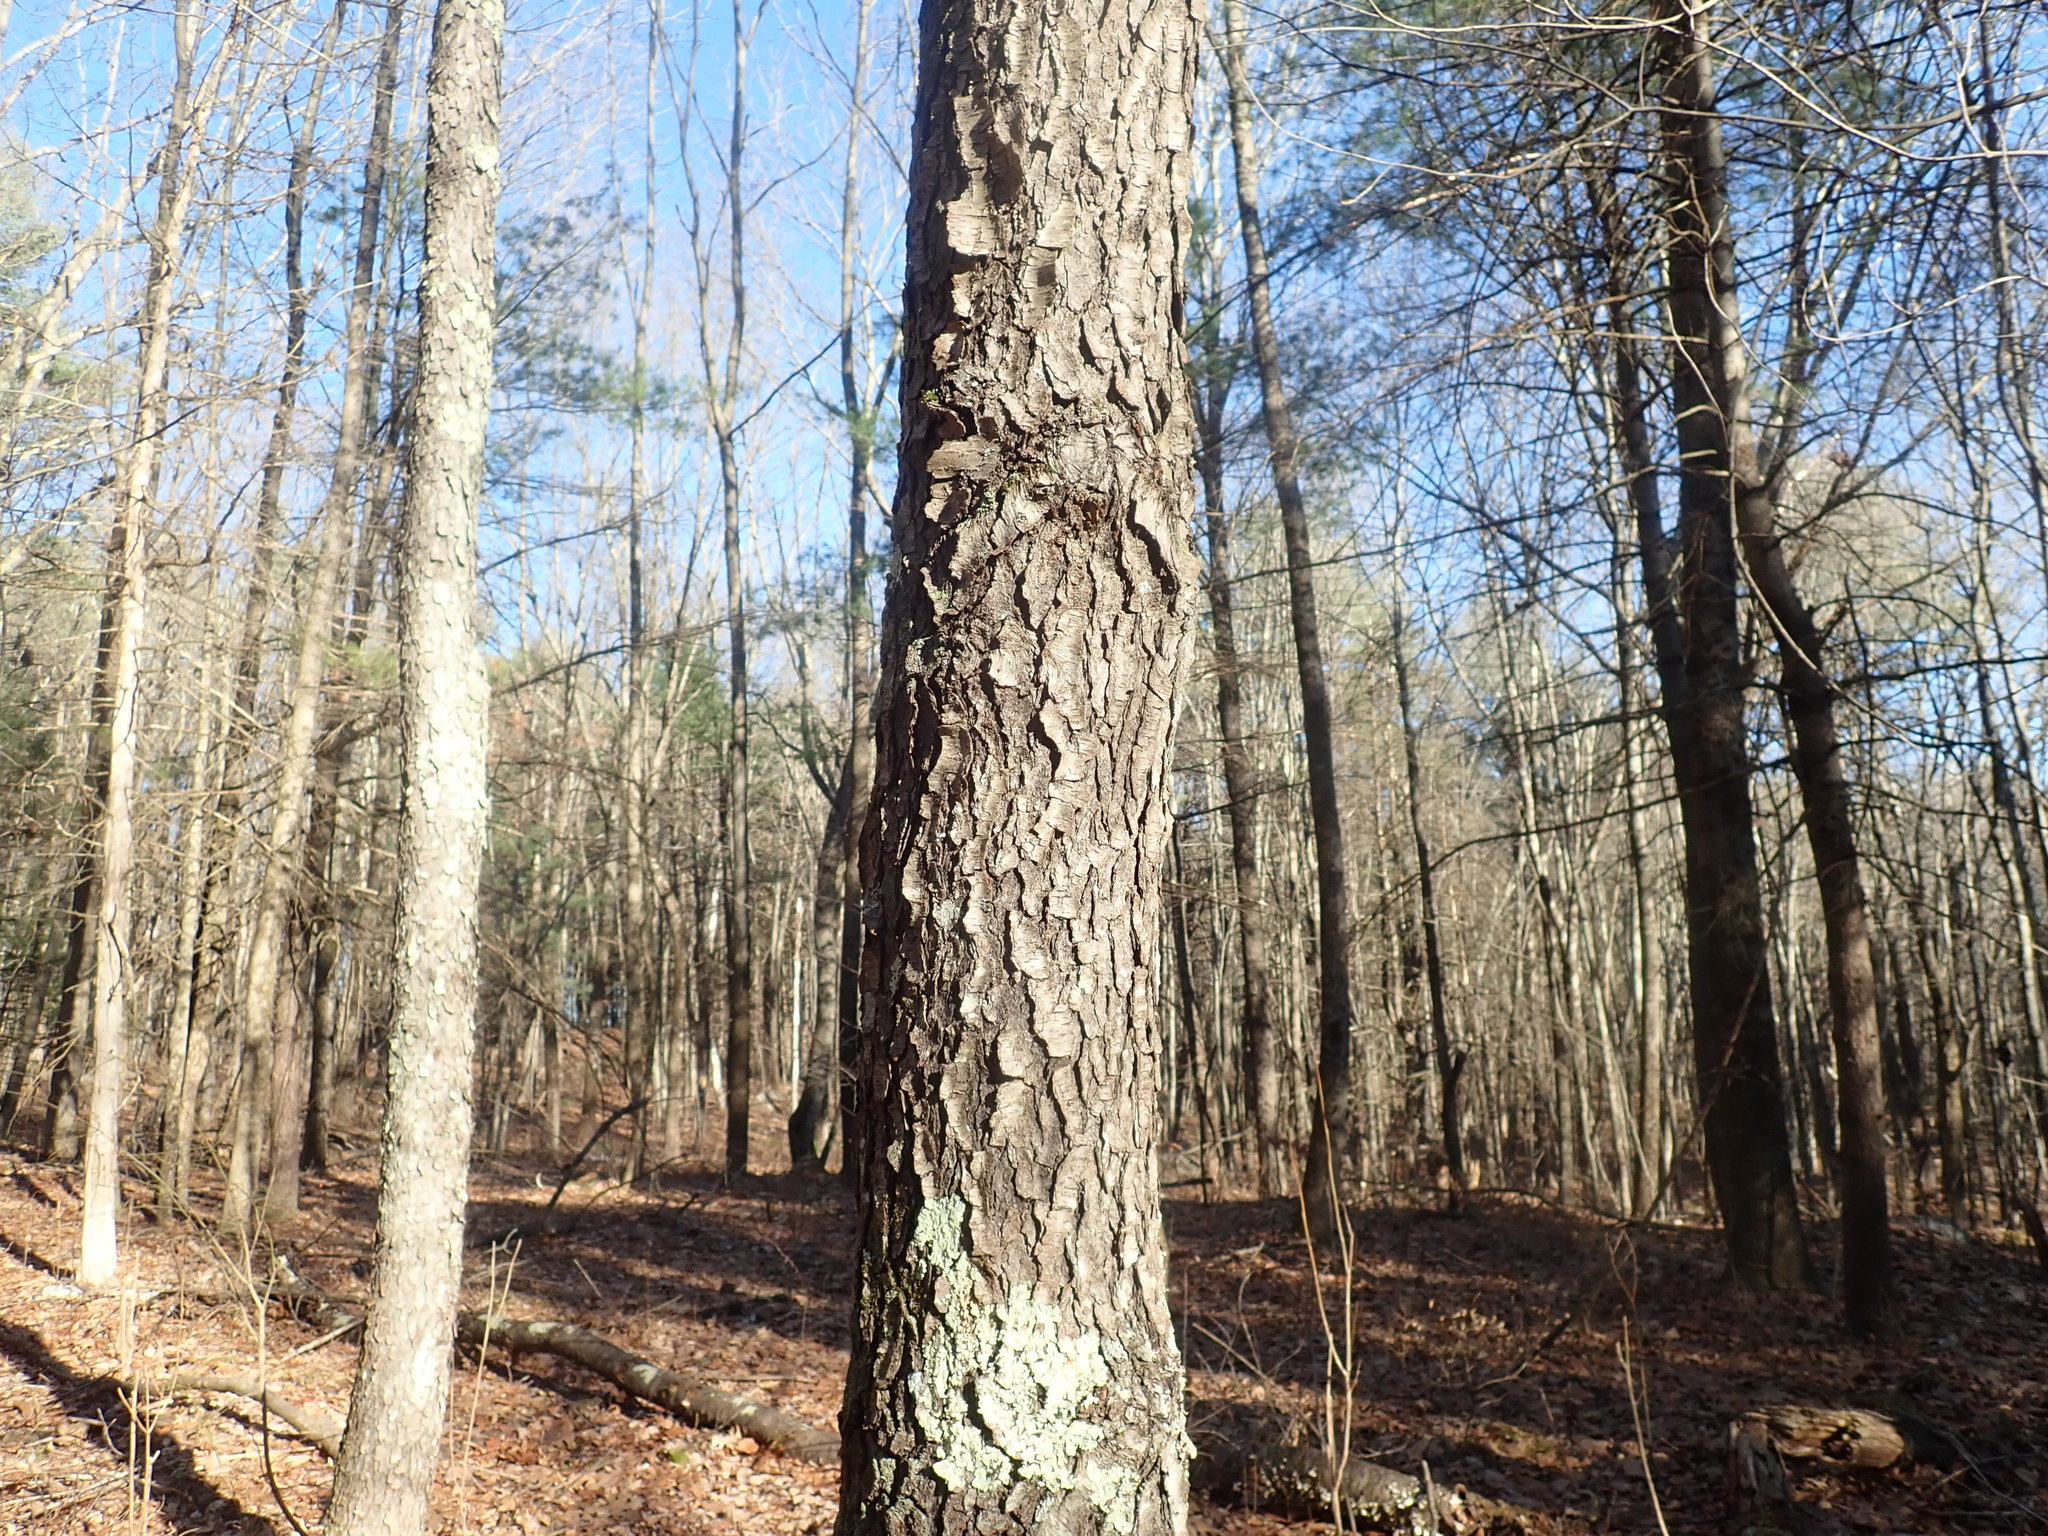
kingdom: Plantae
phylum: Tracheophyta
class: Magnoliopsida
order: Rosales
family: Rosaceae
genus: Prunus
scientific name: Prunus serotina
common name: Black cherry
